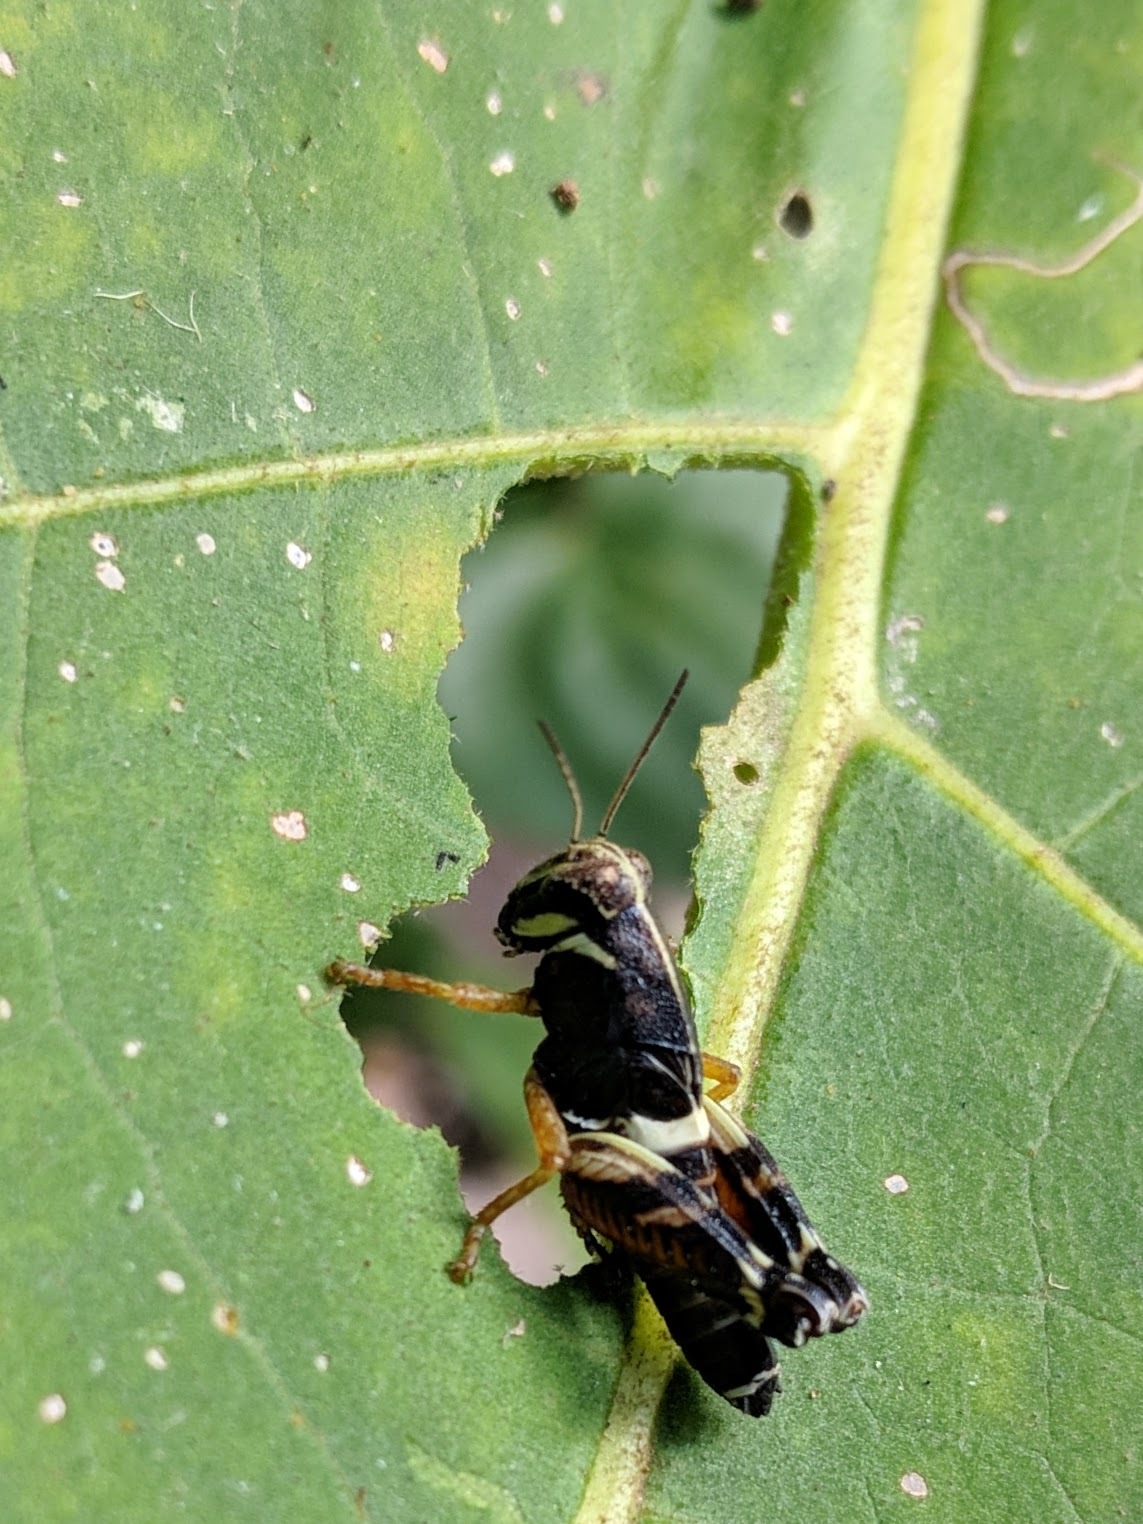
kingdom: Animalia
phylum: Arthropoda
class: Insecta
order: Orthoptera
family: Acrididae
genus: Aidemona
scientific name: Aidemona azteca
